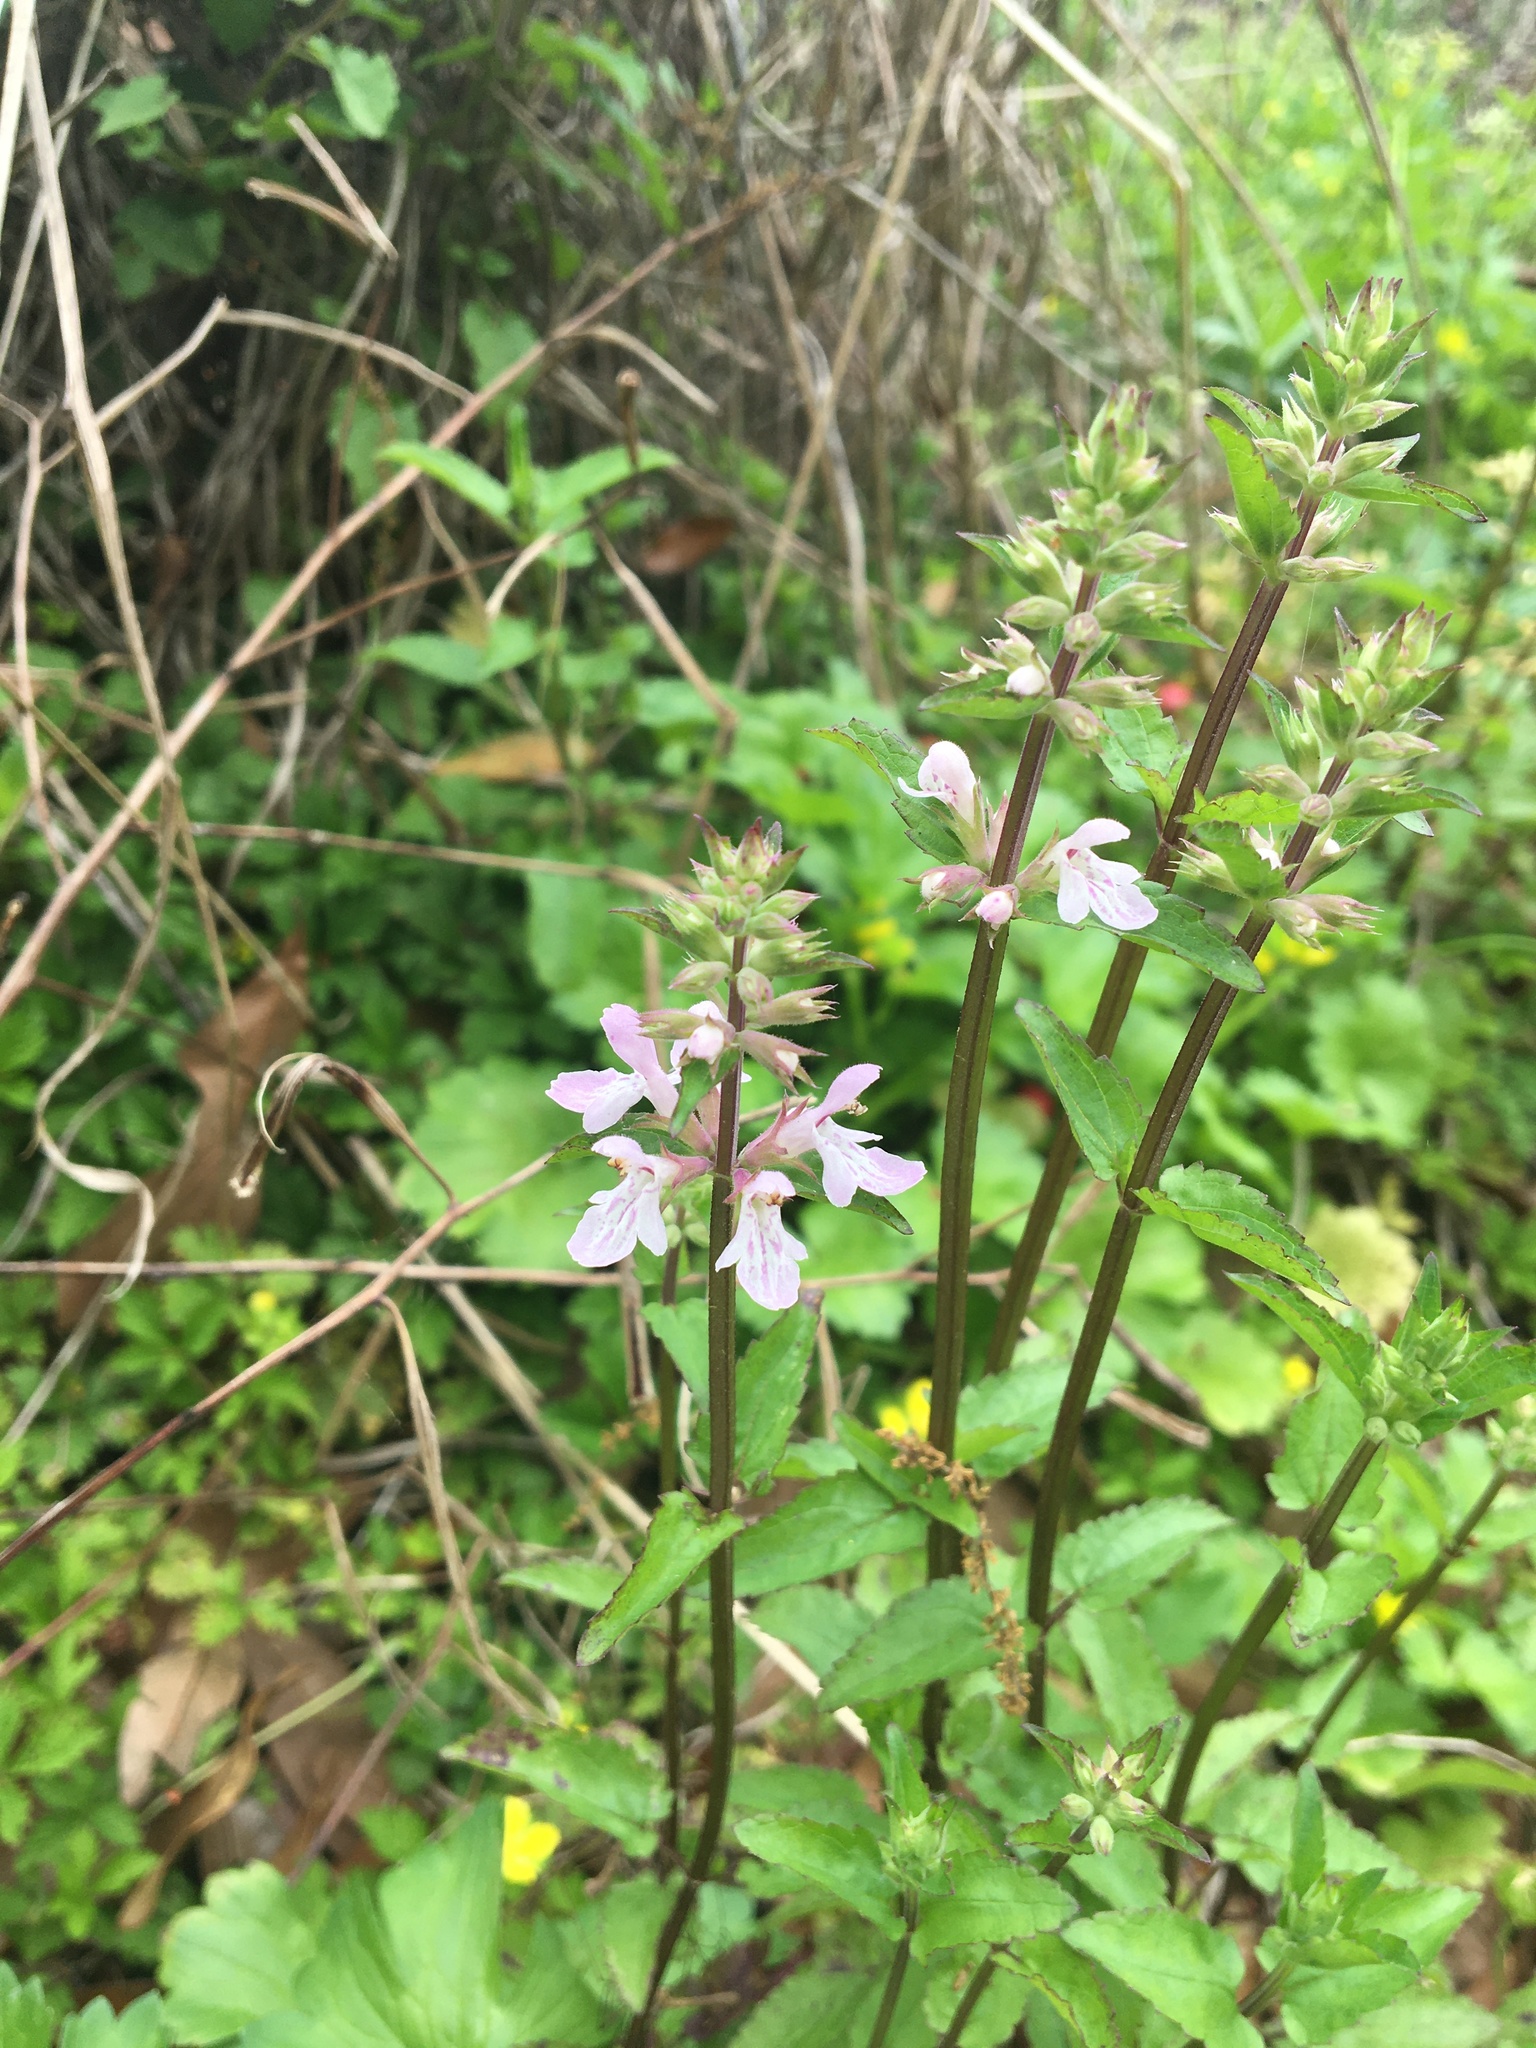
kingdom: Plantae
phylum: Tracheophyta
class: Magnoliopsida
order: Lamiales
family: Lamiaceae
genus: Stachys
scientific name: Stachys floridana
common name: Florida betony
